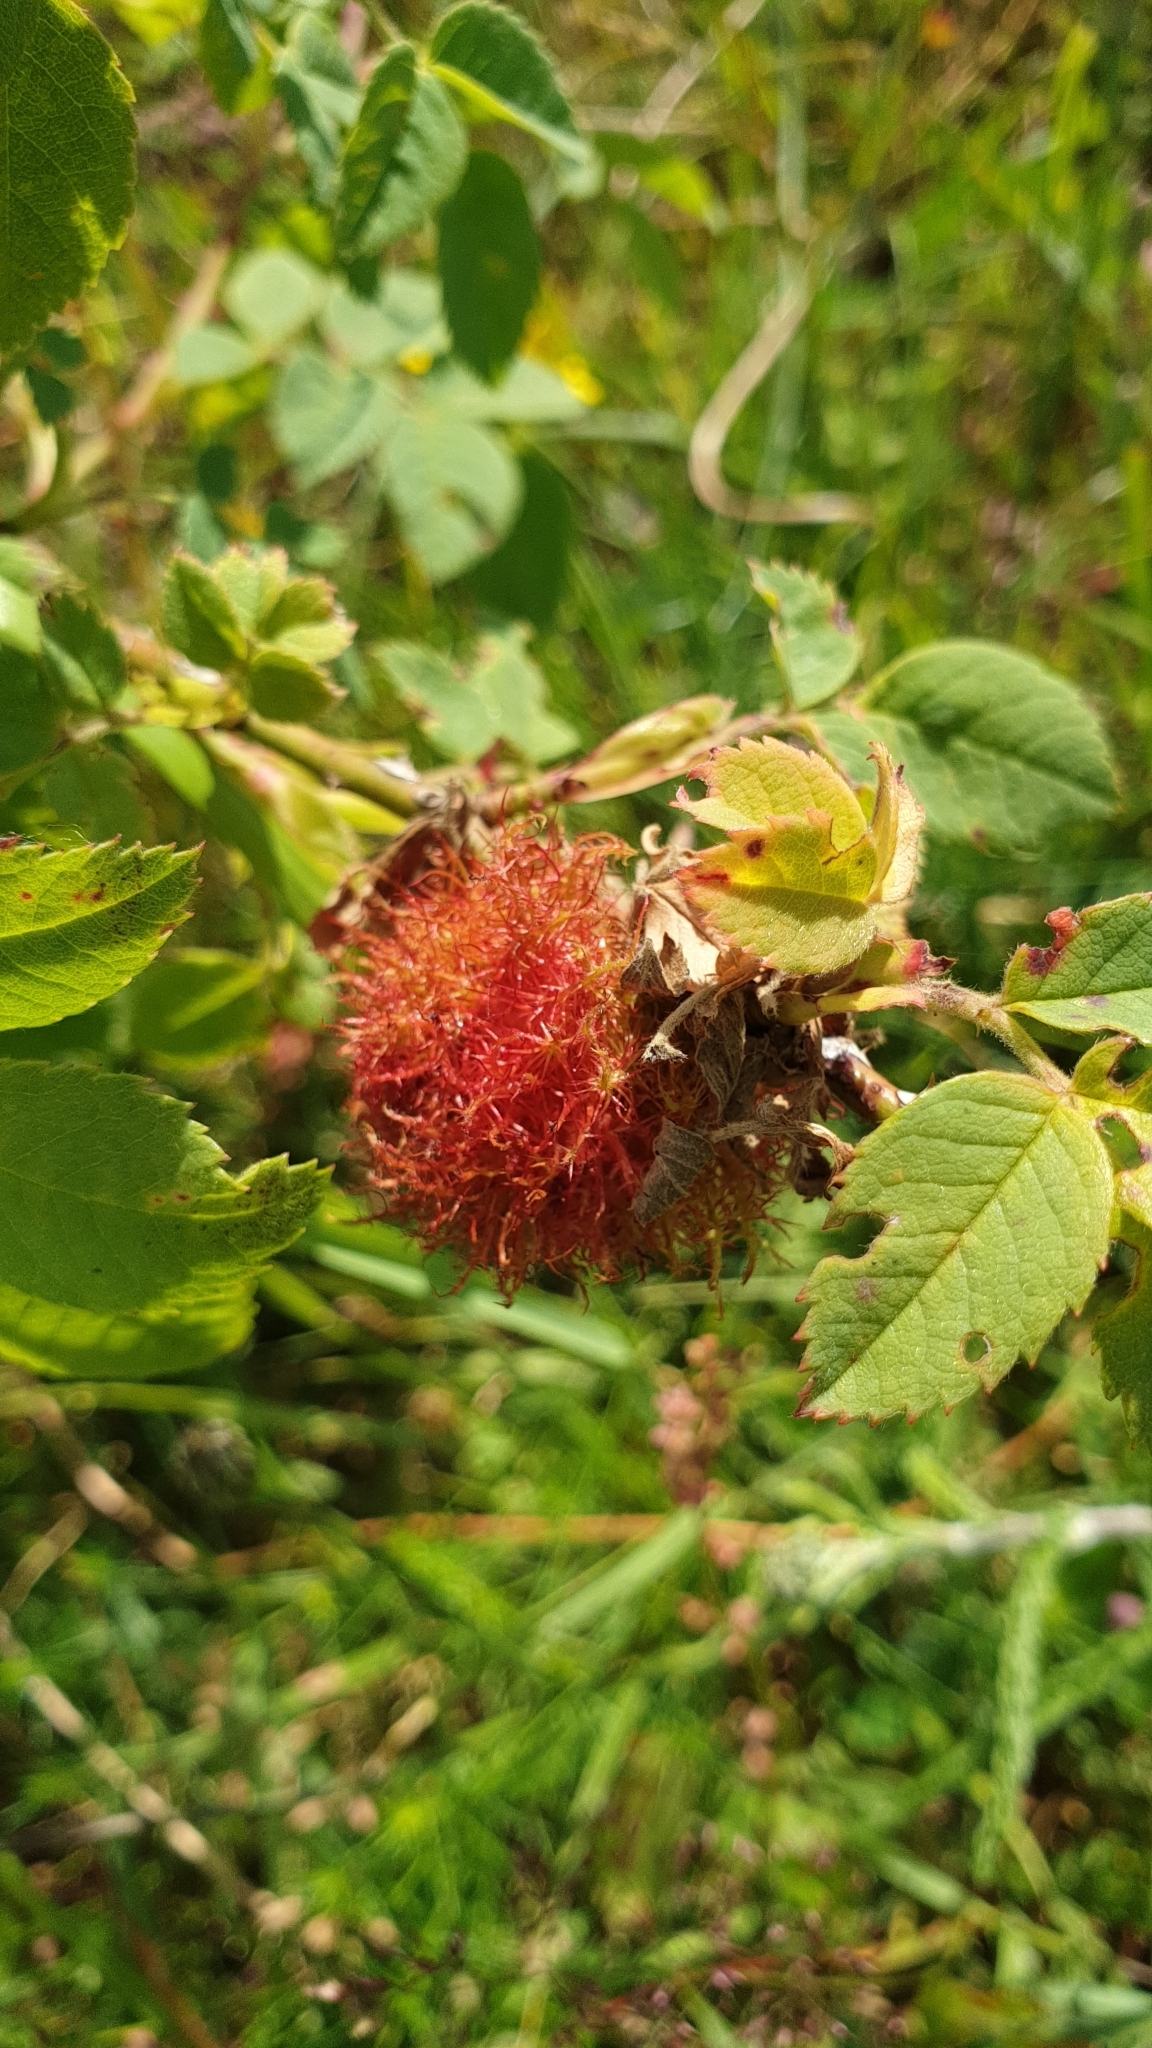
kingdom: Animalia
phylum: Arthropoda
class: Insecta
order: Hymenoptera
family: Cynipidae
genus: Diplolepis
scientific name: Diplolepis rosae
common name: Bedeguar gall
